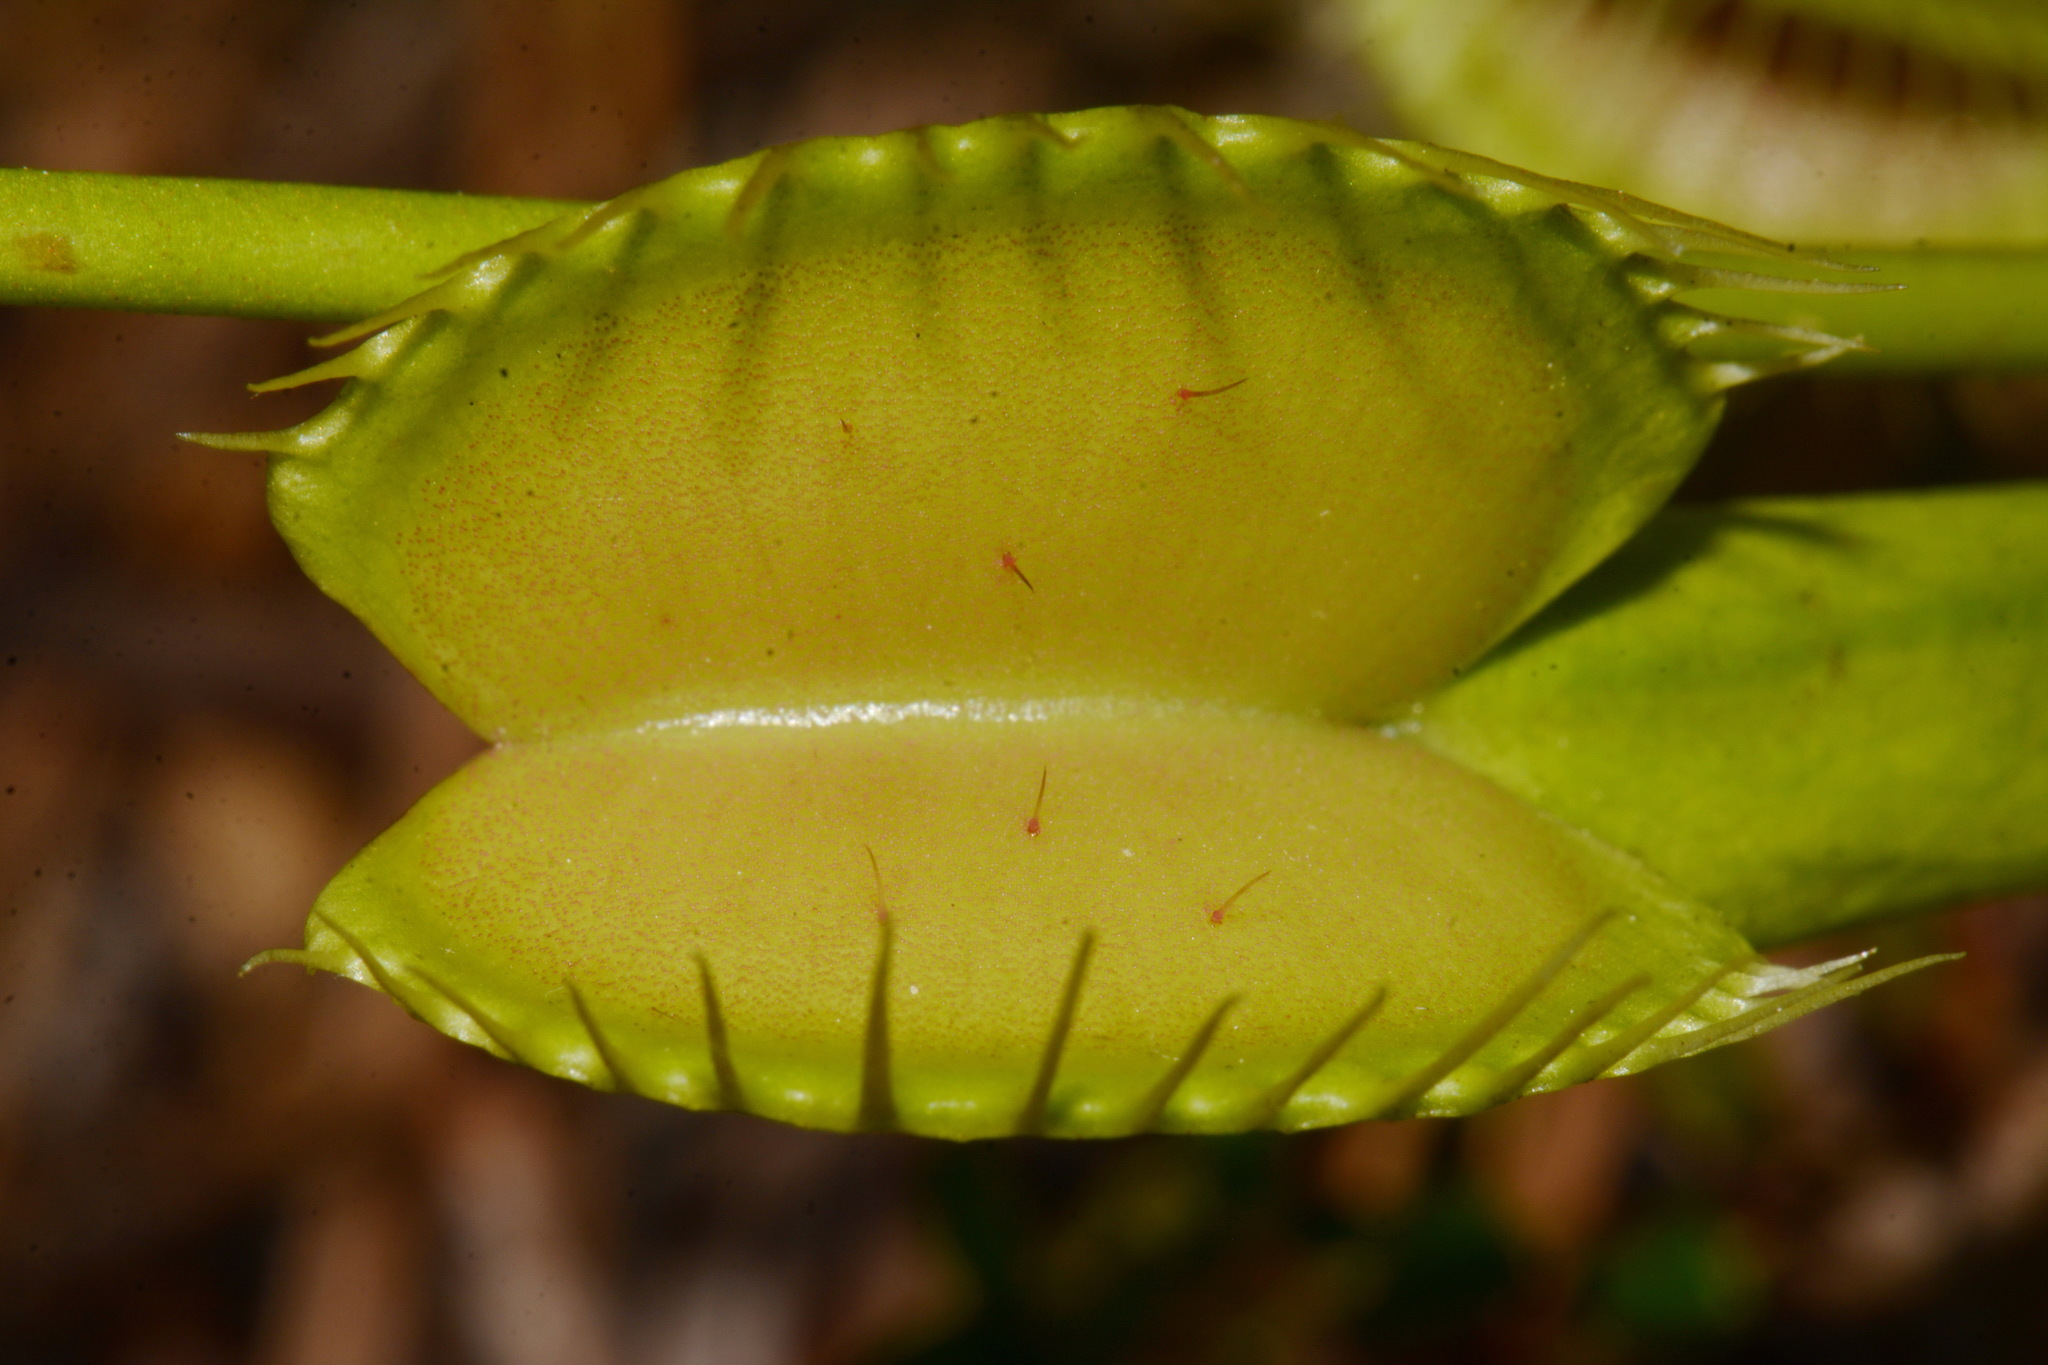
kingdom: Plantae
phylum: Tracheophyta
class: Magnoliopsida
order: Caryophyllales
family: Droseraceae
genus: Dionaea
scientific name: Dionaea muscipula
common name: Venus flytrap
